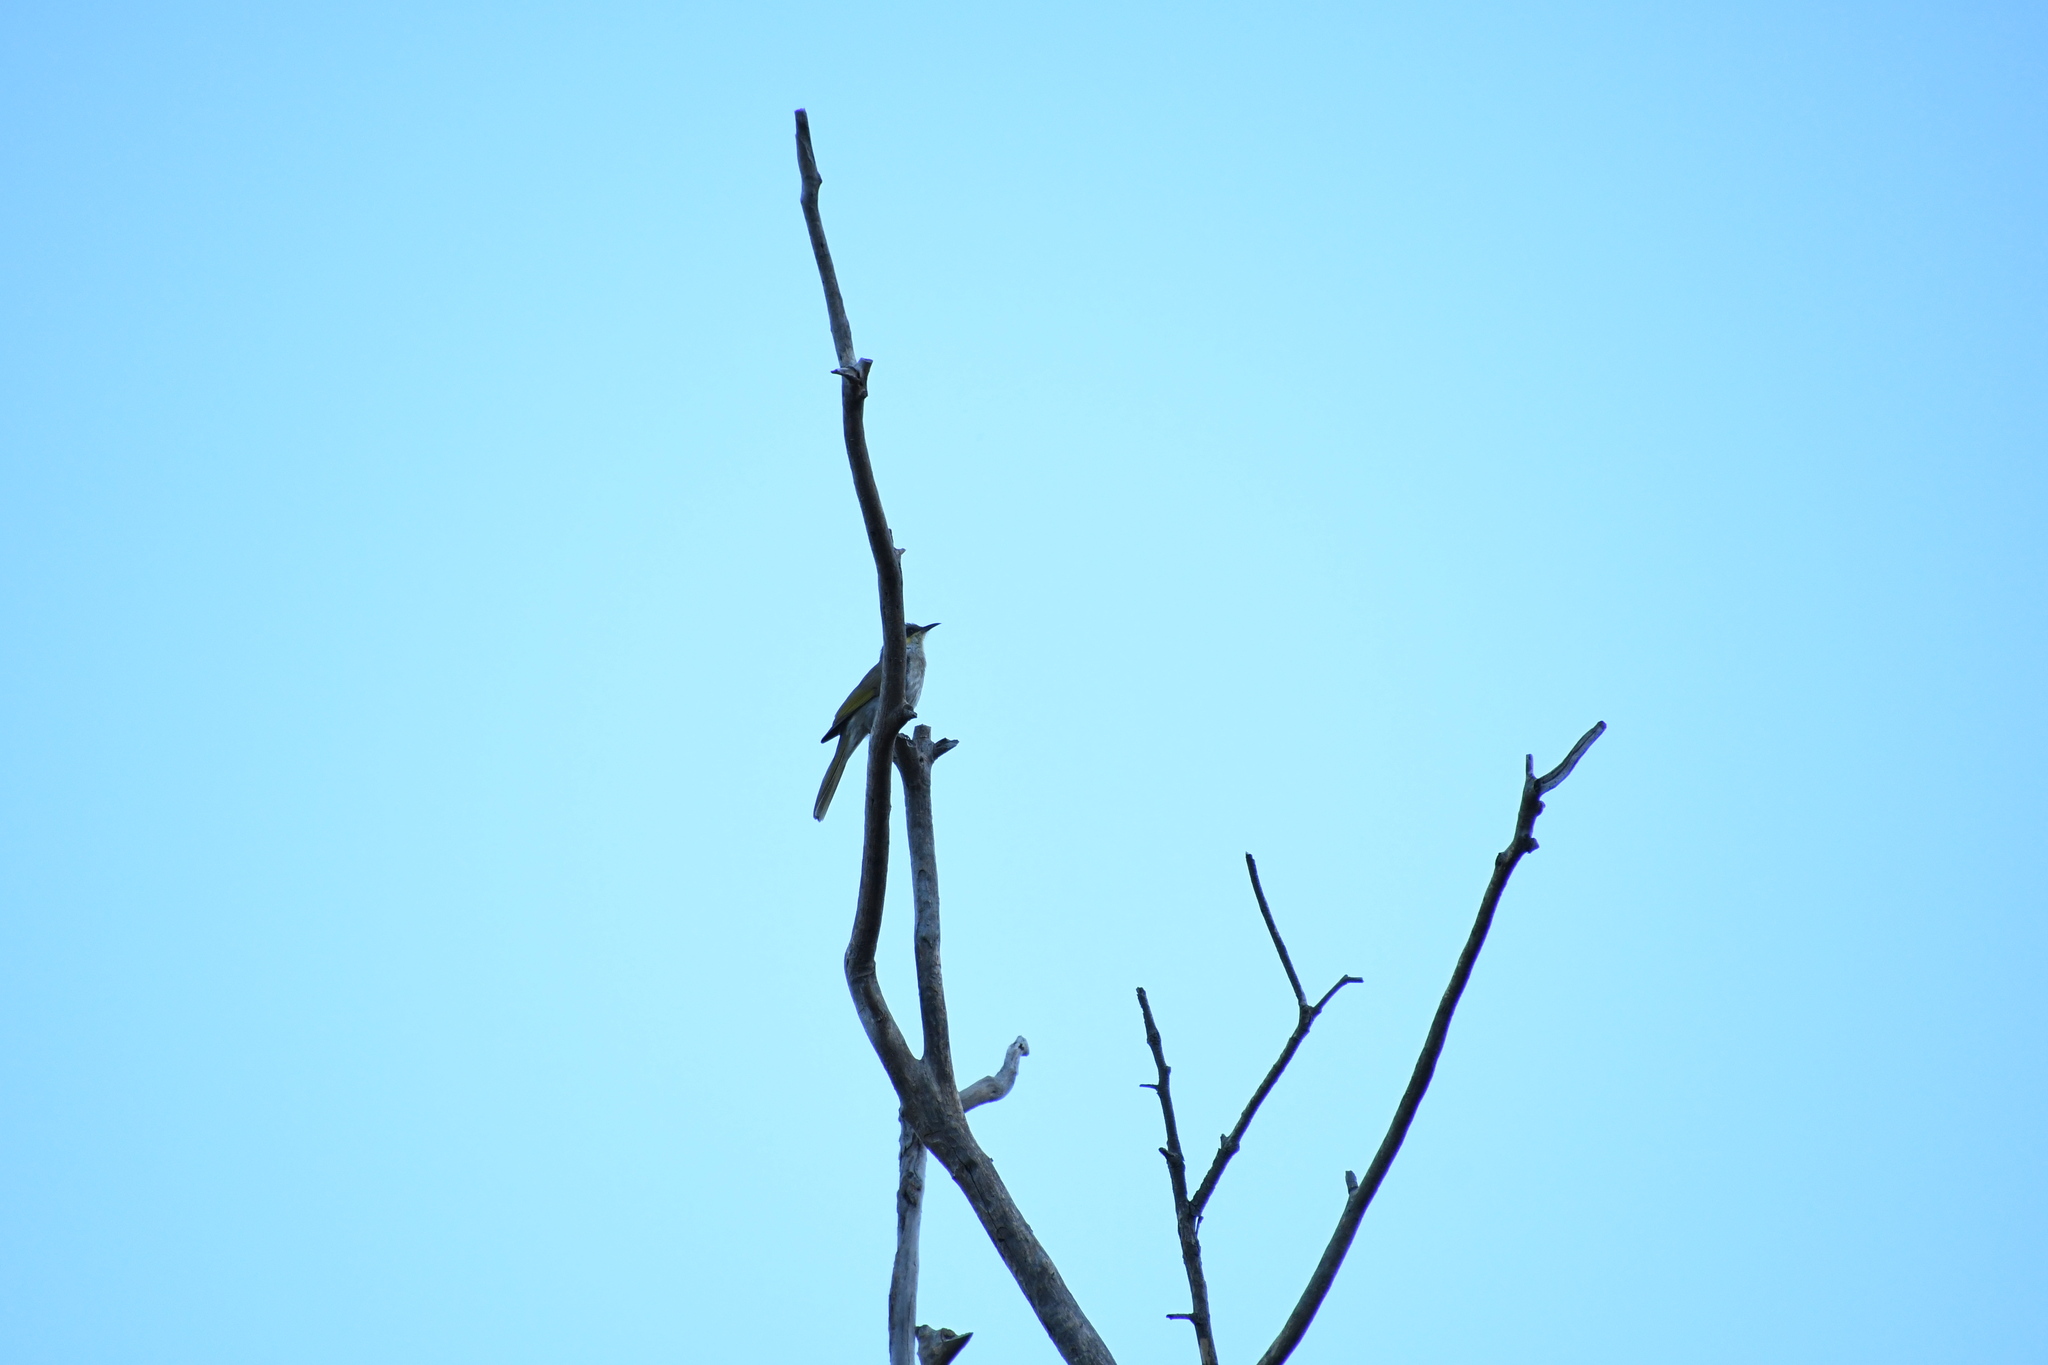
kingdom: Animalia
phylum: Chordata
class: Aves
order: Passeriformes
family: Meliphagidae
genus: Gavicalis
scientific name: Gavicalis virescens
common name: Singing honeyeater
